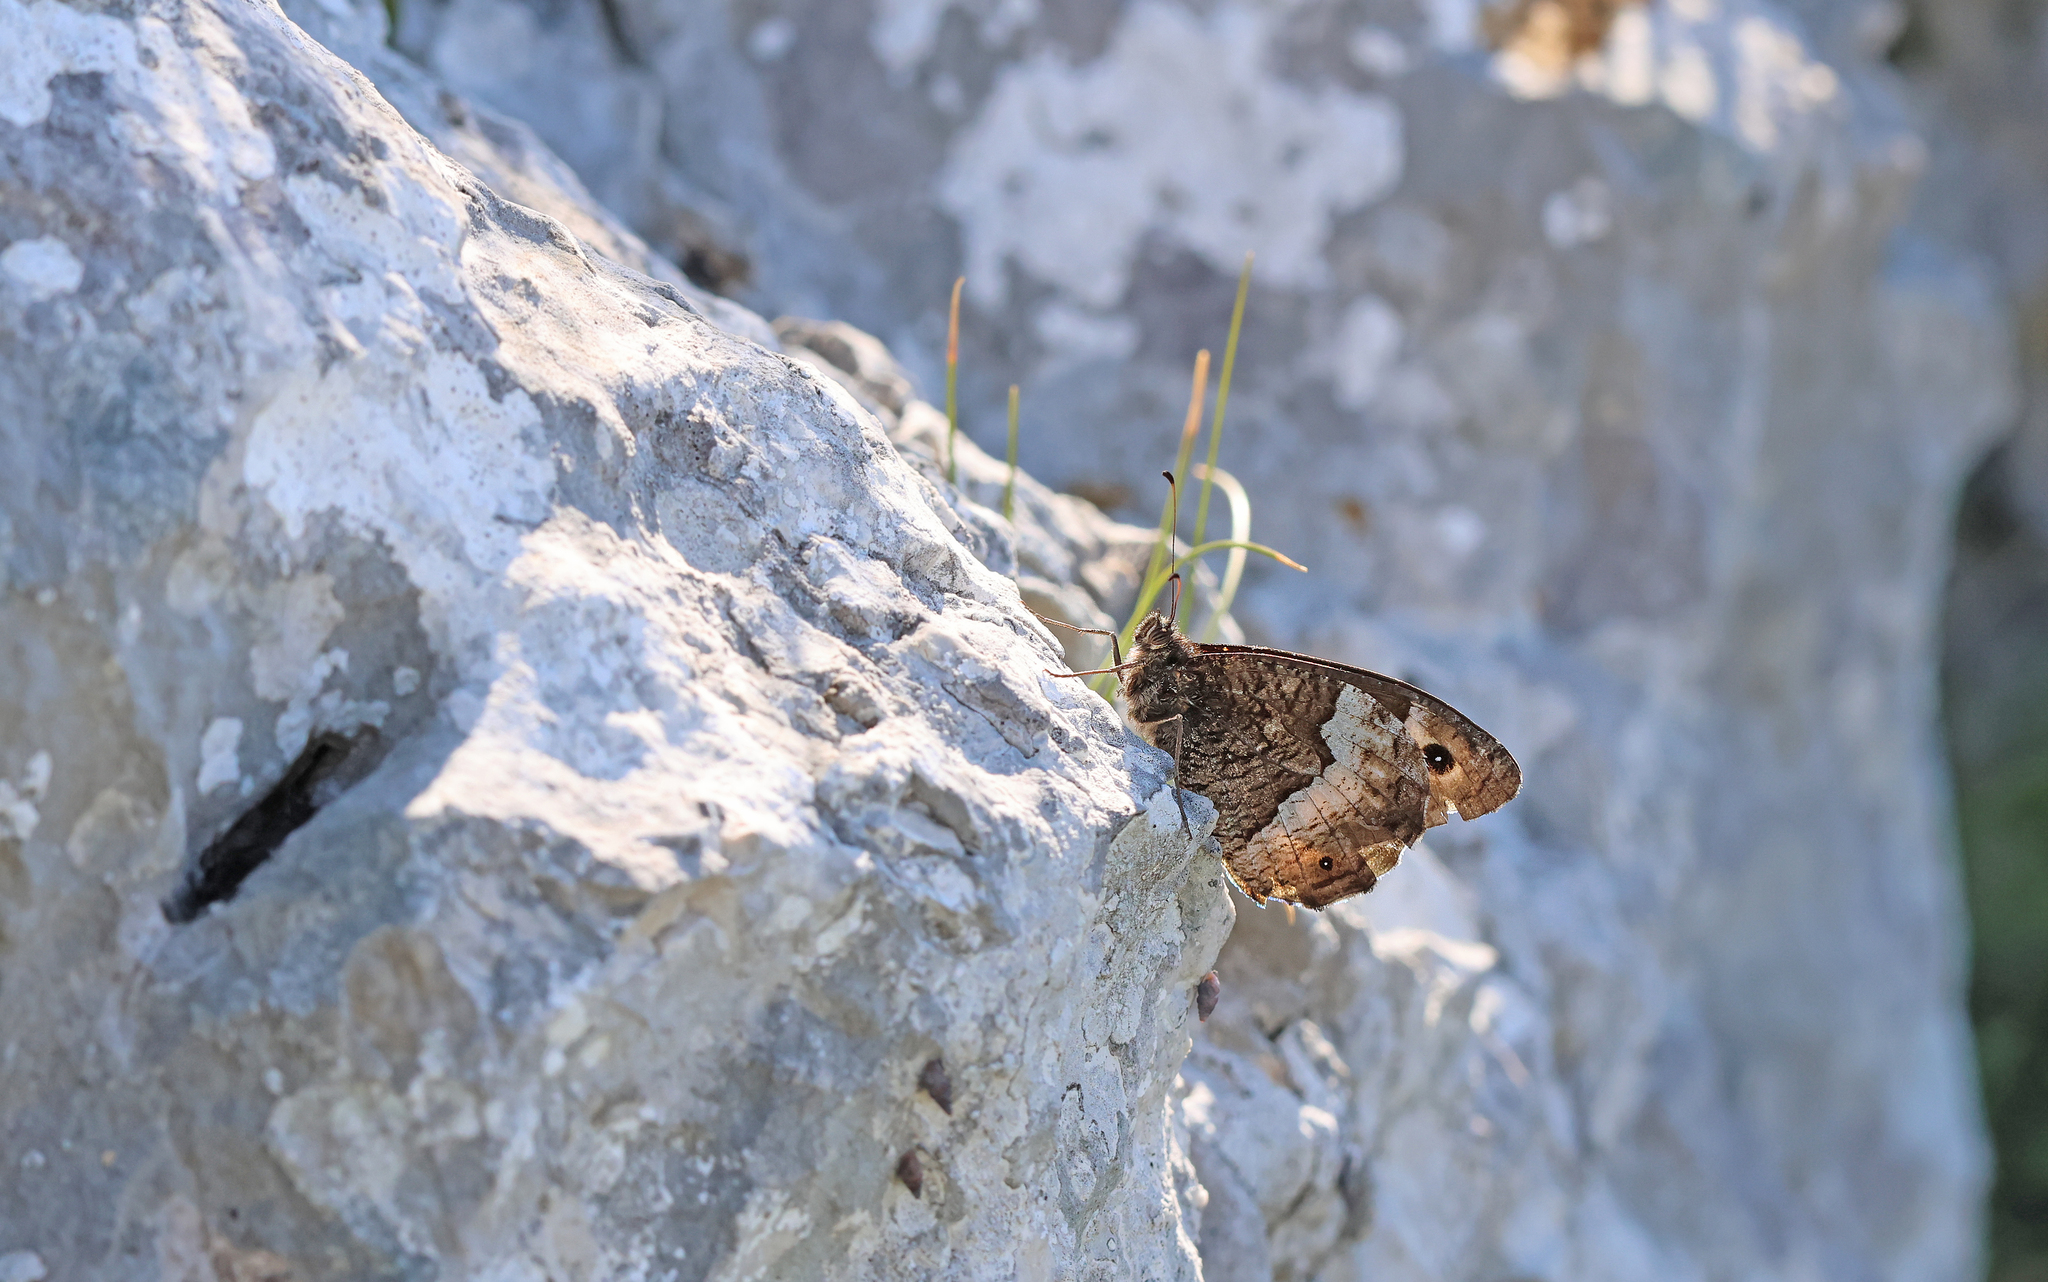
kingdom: Animalia
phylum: Arthropoda
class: Insecta
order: Lepidoptera
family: Nymphalidae
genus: Hipparchia
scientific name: Hipparchia fagi
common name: Woodland grayling
